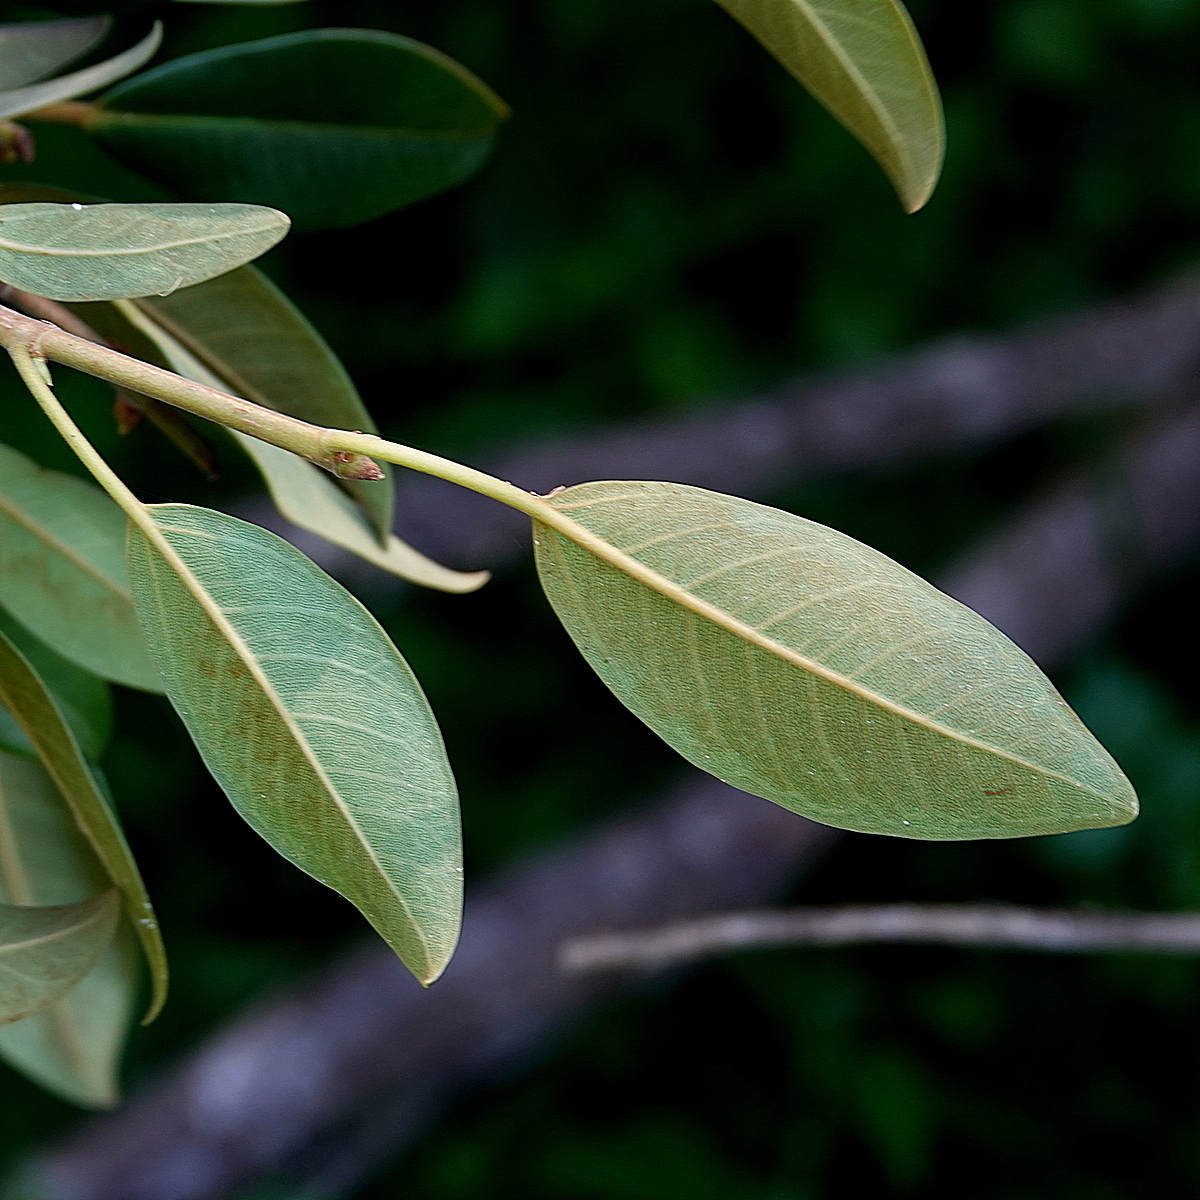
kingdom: Plantae
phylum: Tracheophyta
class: Magnoliopsida
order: Rosales
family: Moraceae
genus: Ficus
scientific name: Ficus obliqua
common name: Small-leaf fig
